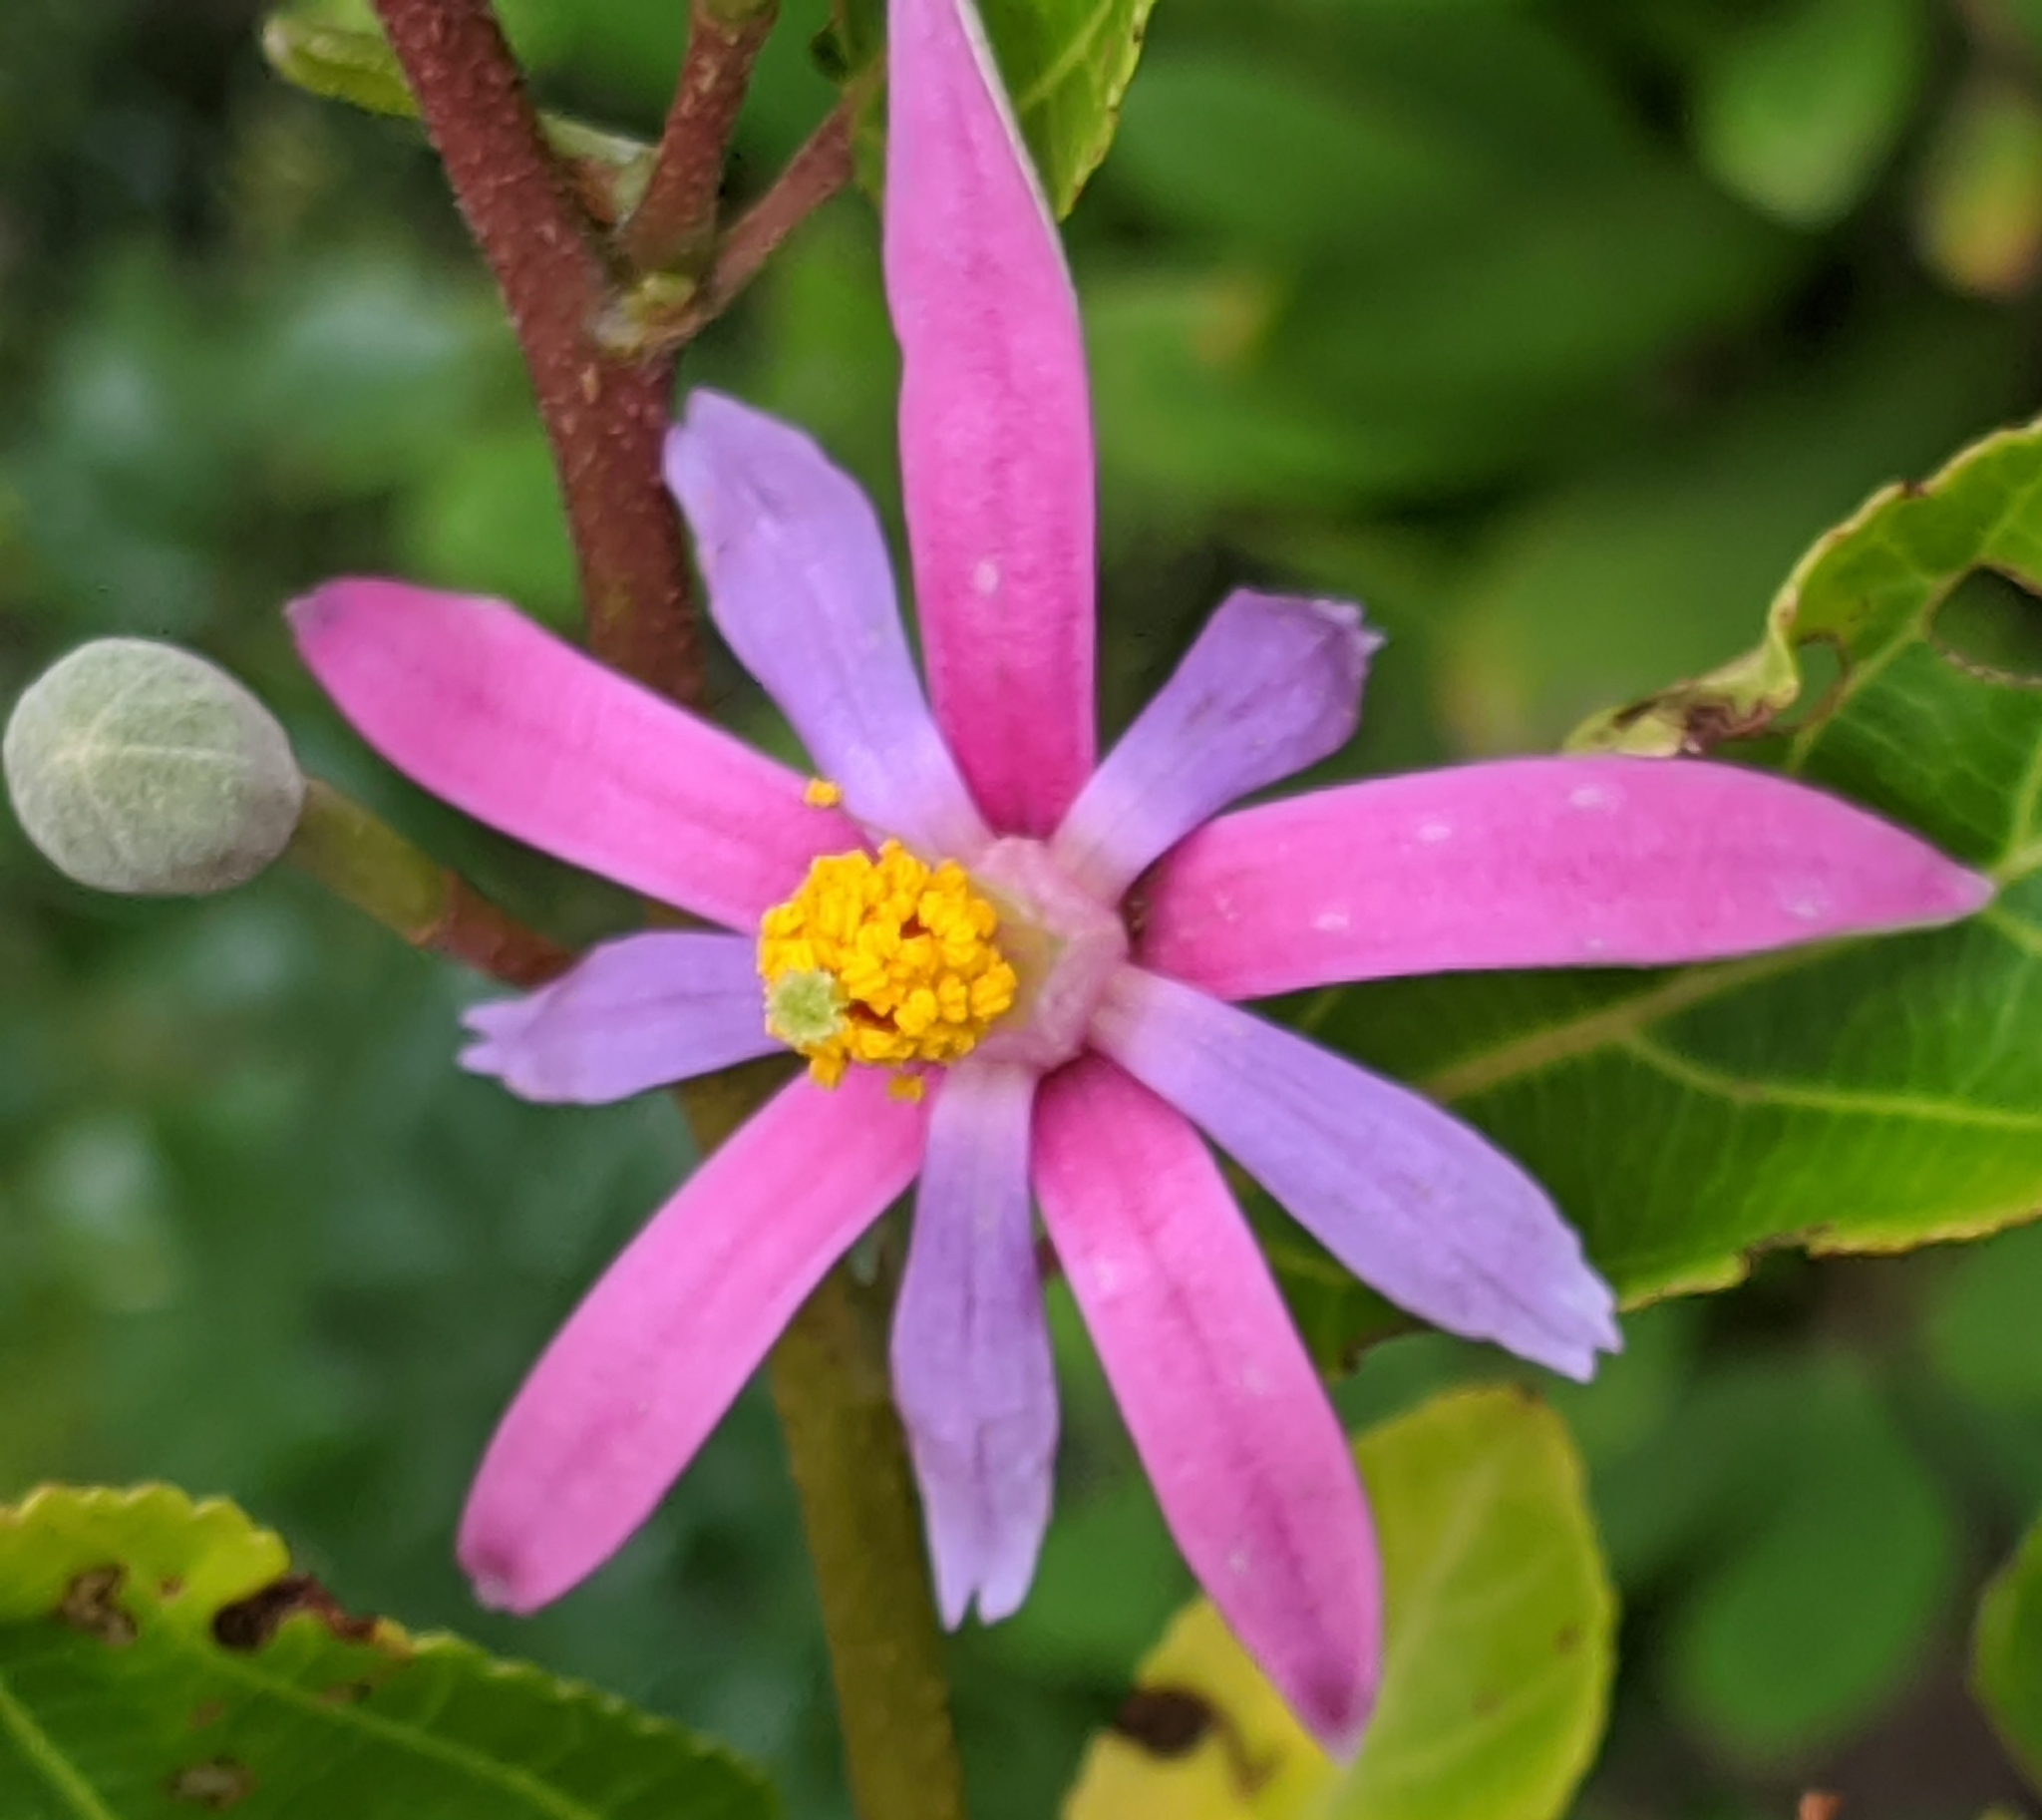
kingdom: Plantae
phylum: Tracheophyta
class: Magnoliopsida
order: Malvales
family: Malvaceae
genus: Grewia
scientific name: Grewia occidentalis
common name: Crossberry
